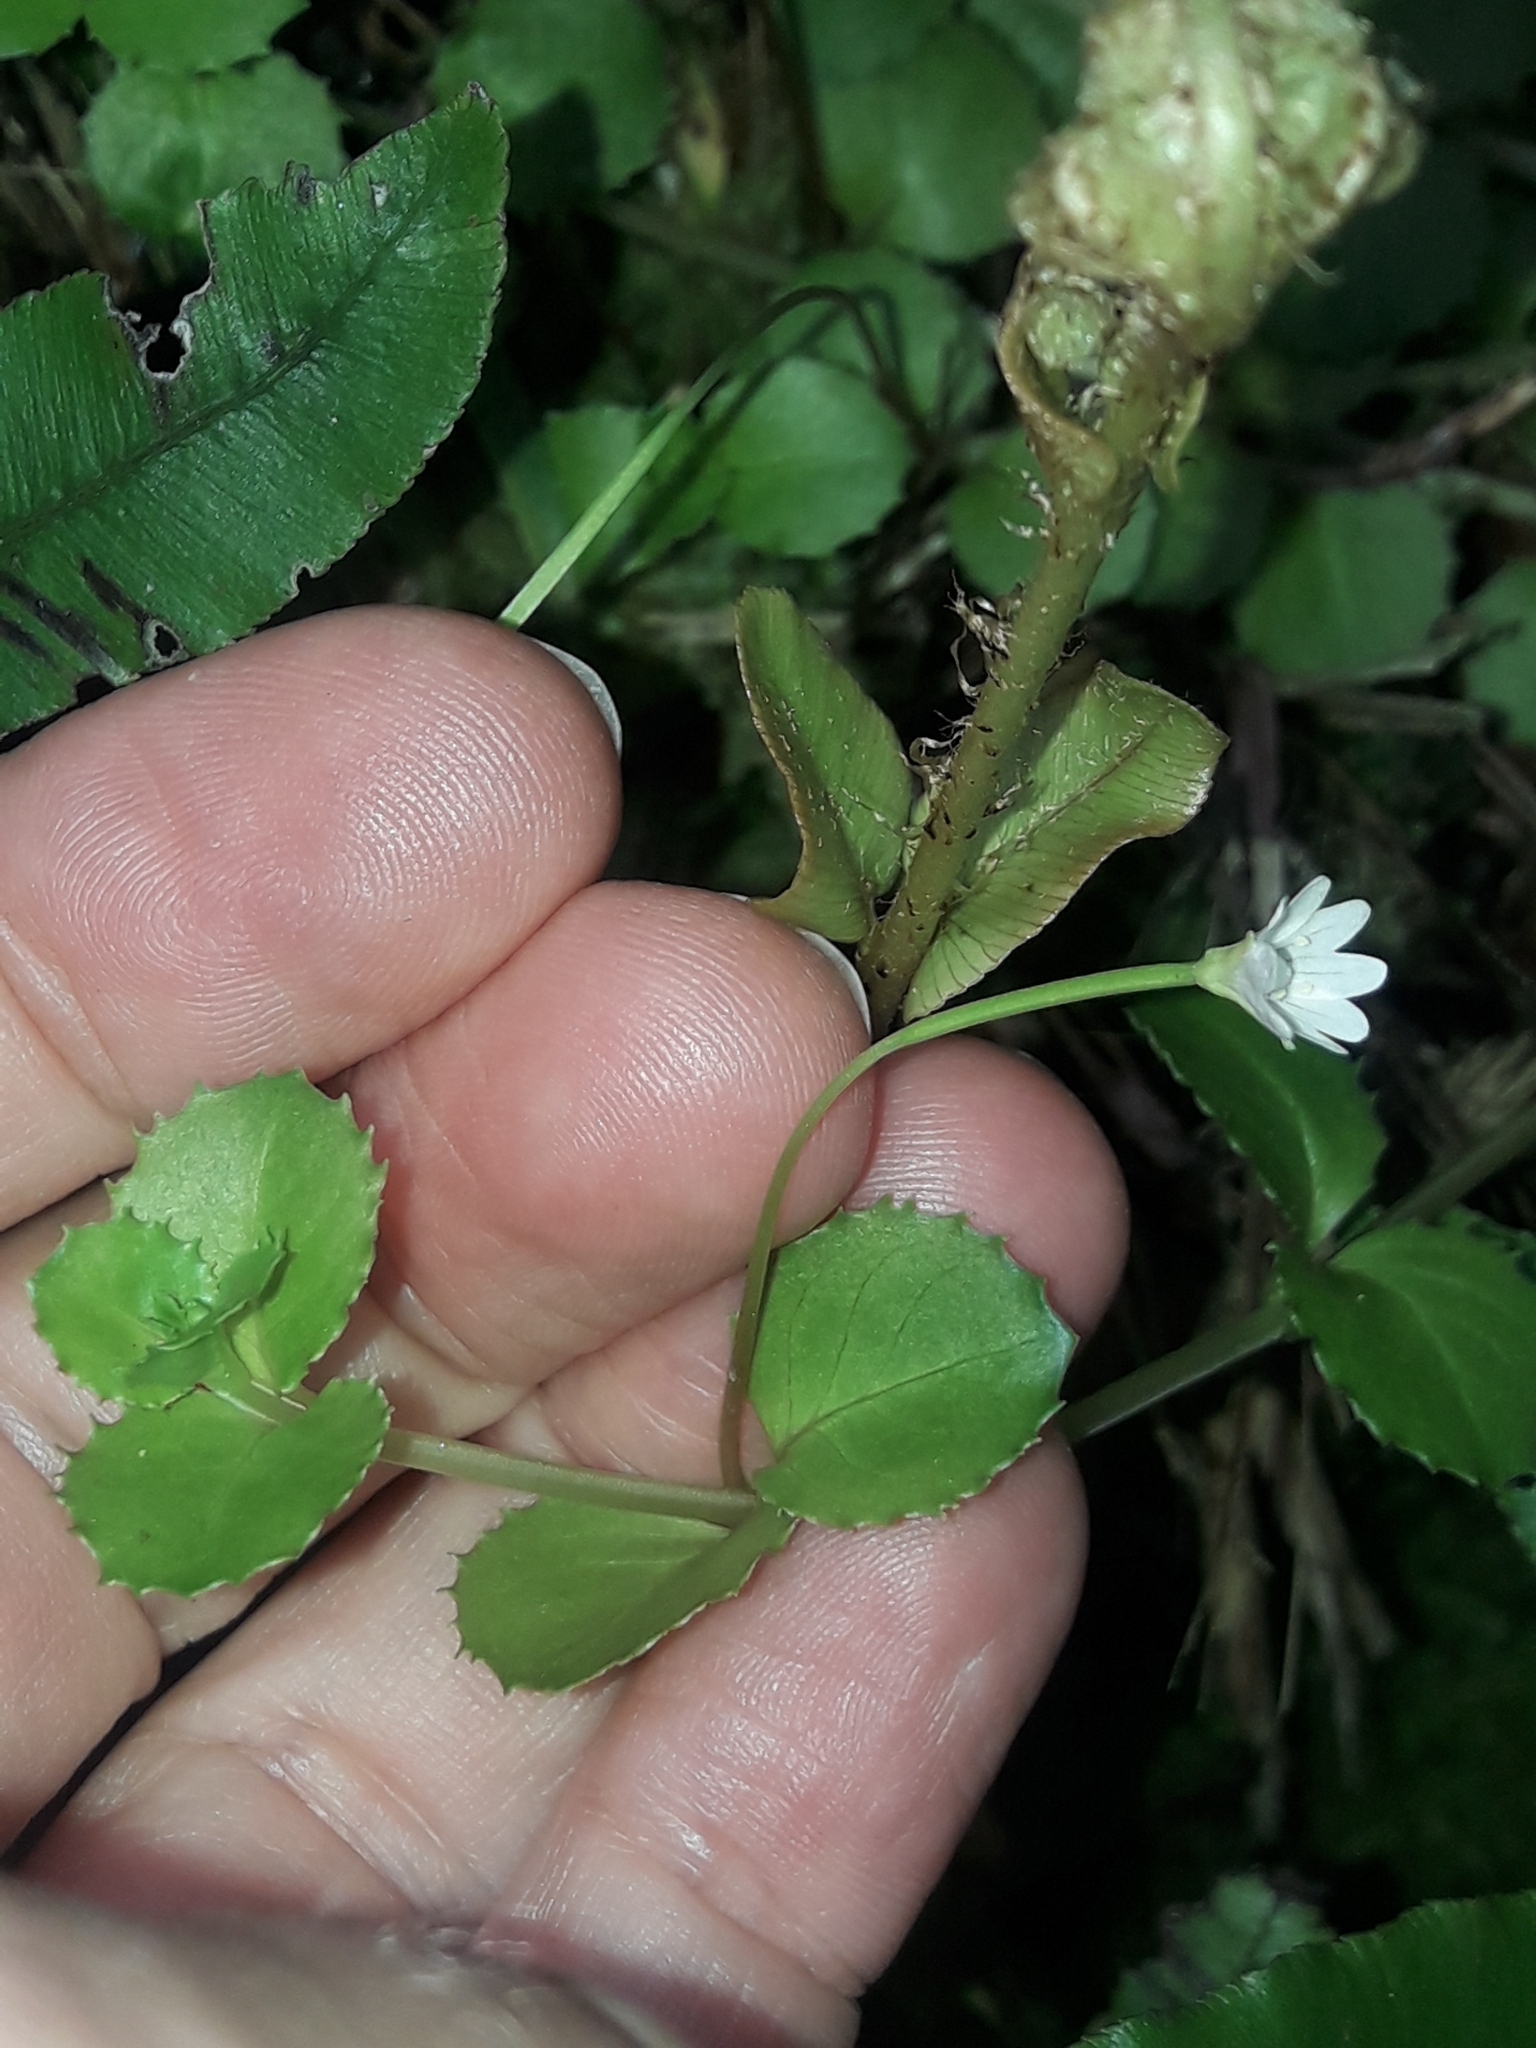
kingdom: Plantae
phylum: Tracheophyta
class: Magnoliopsida
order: Myrtales
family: Onagraceae
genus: Epilobium
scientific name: Epilobium pedunculare
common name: Rockery willowherb
